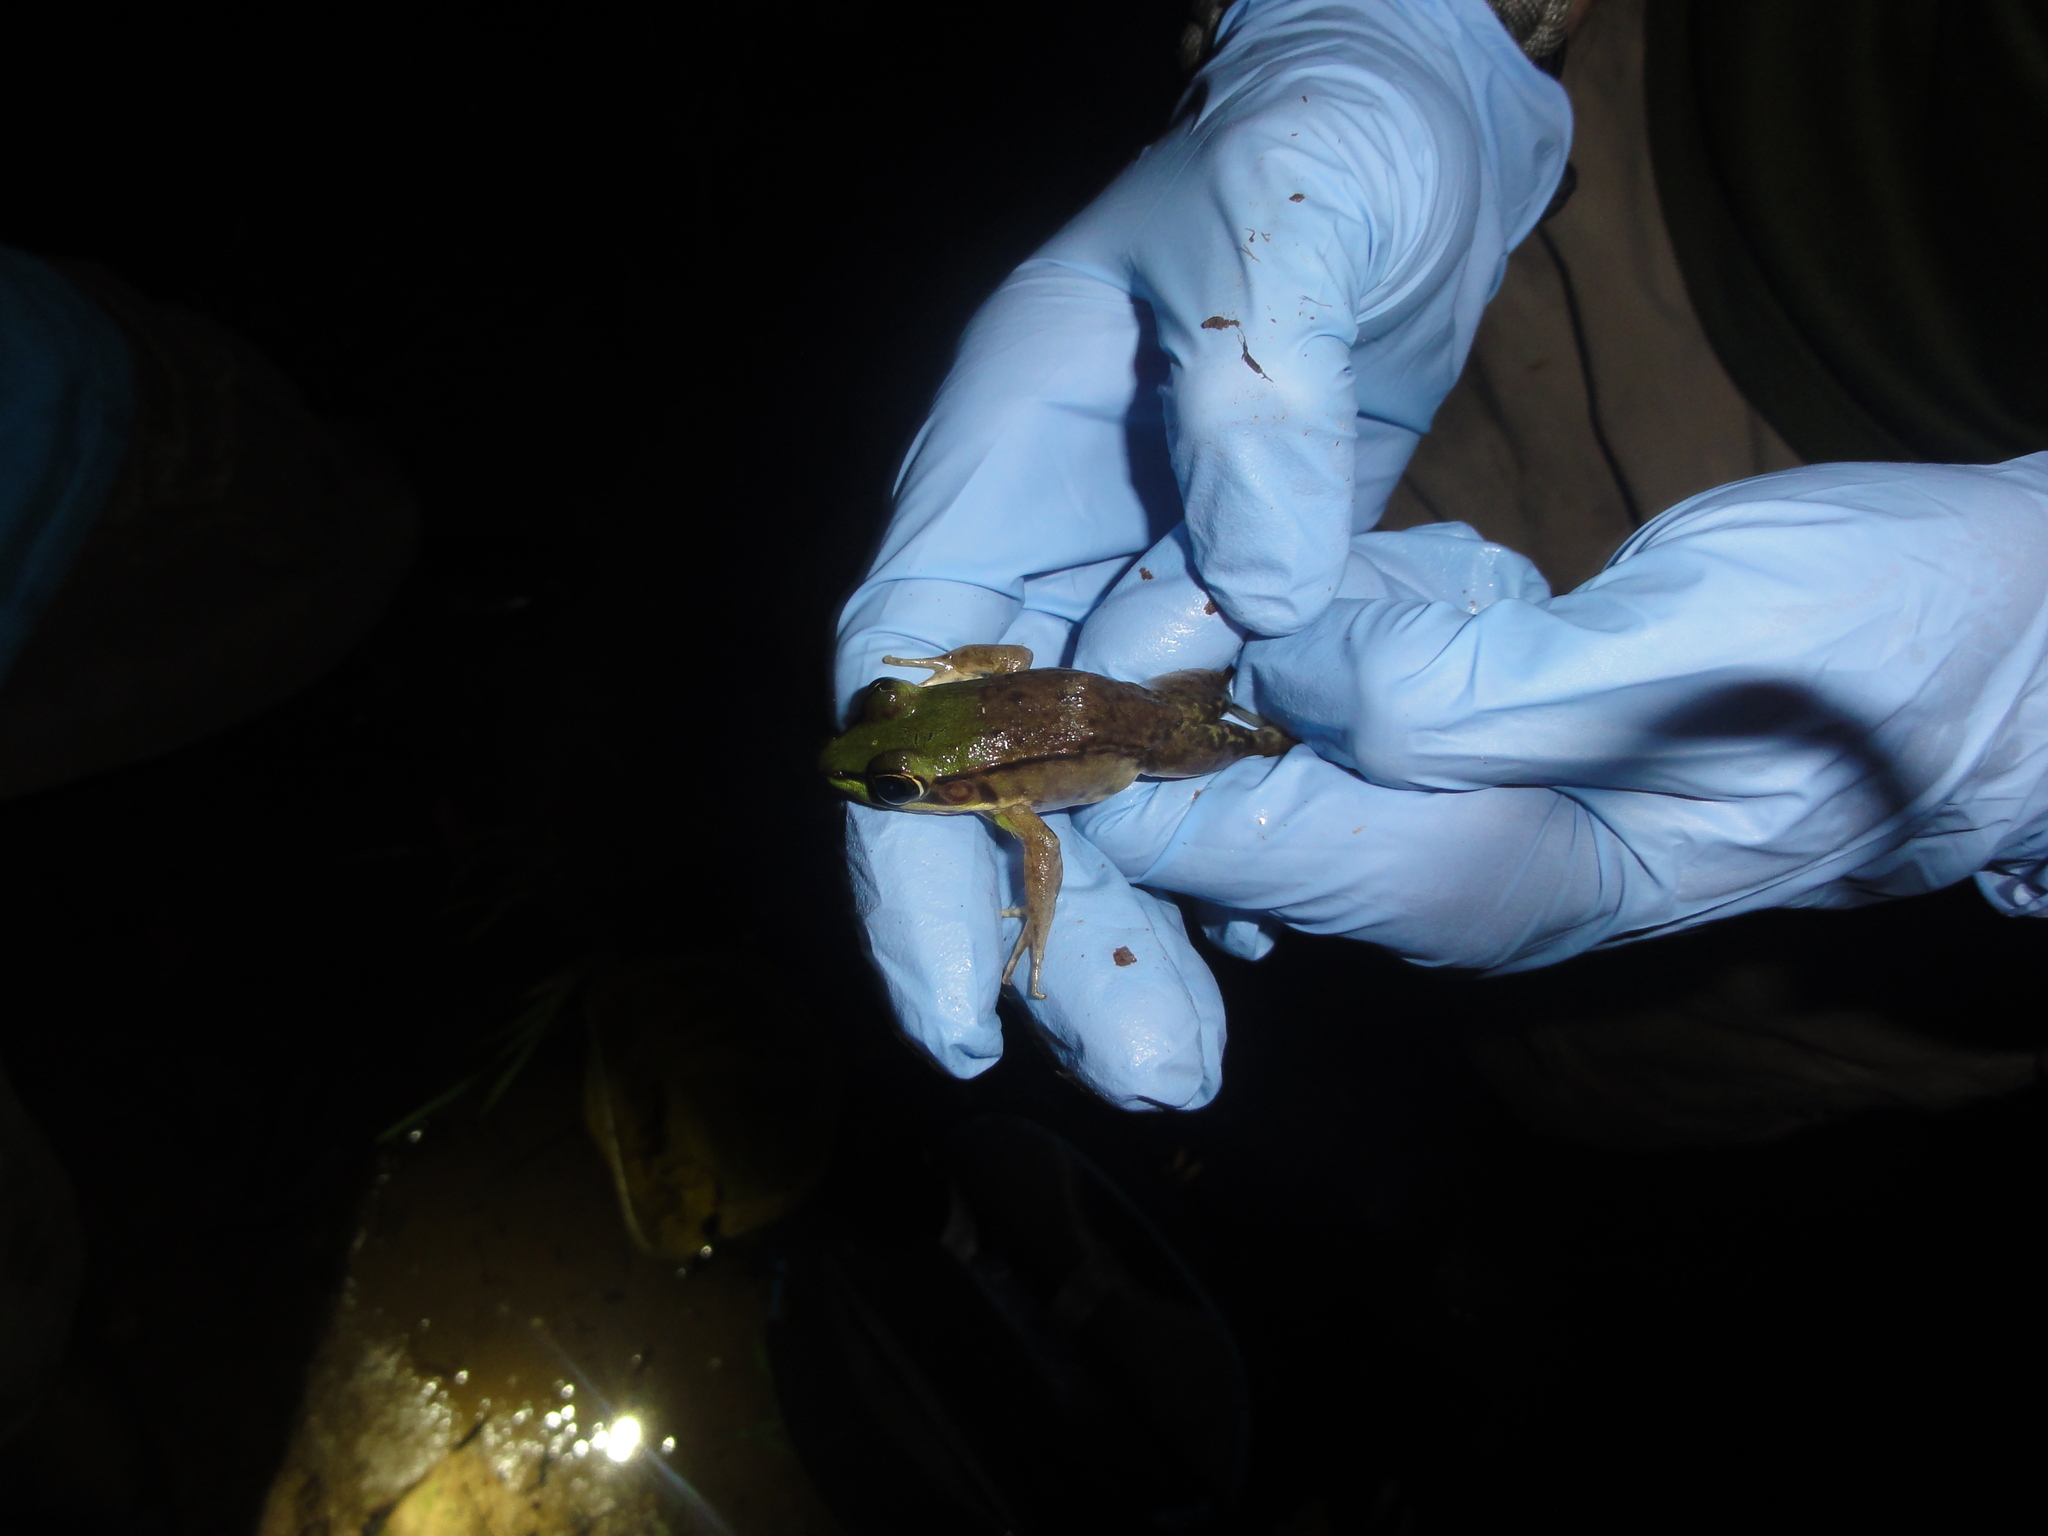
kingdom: Animalia
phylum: Chordata
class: Amphibia
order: Anura
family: Ranidae
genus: Lithobates
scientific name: Lithobates vaillanti
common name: Vaillant's frog
